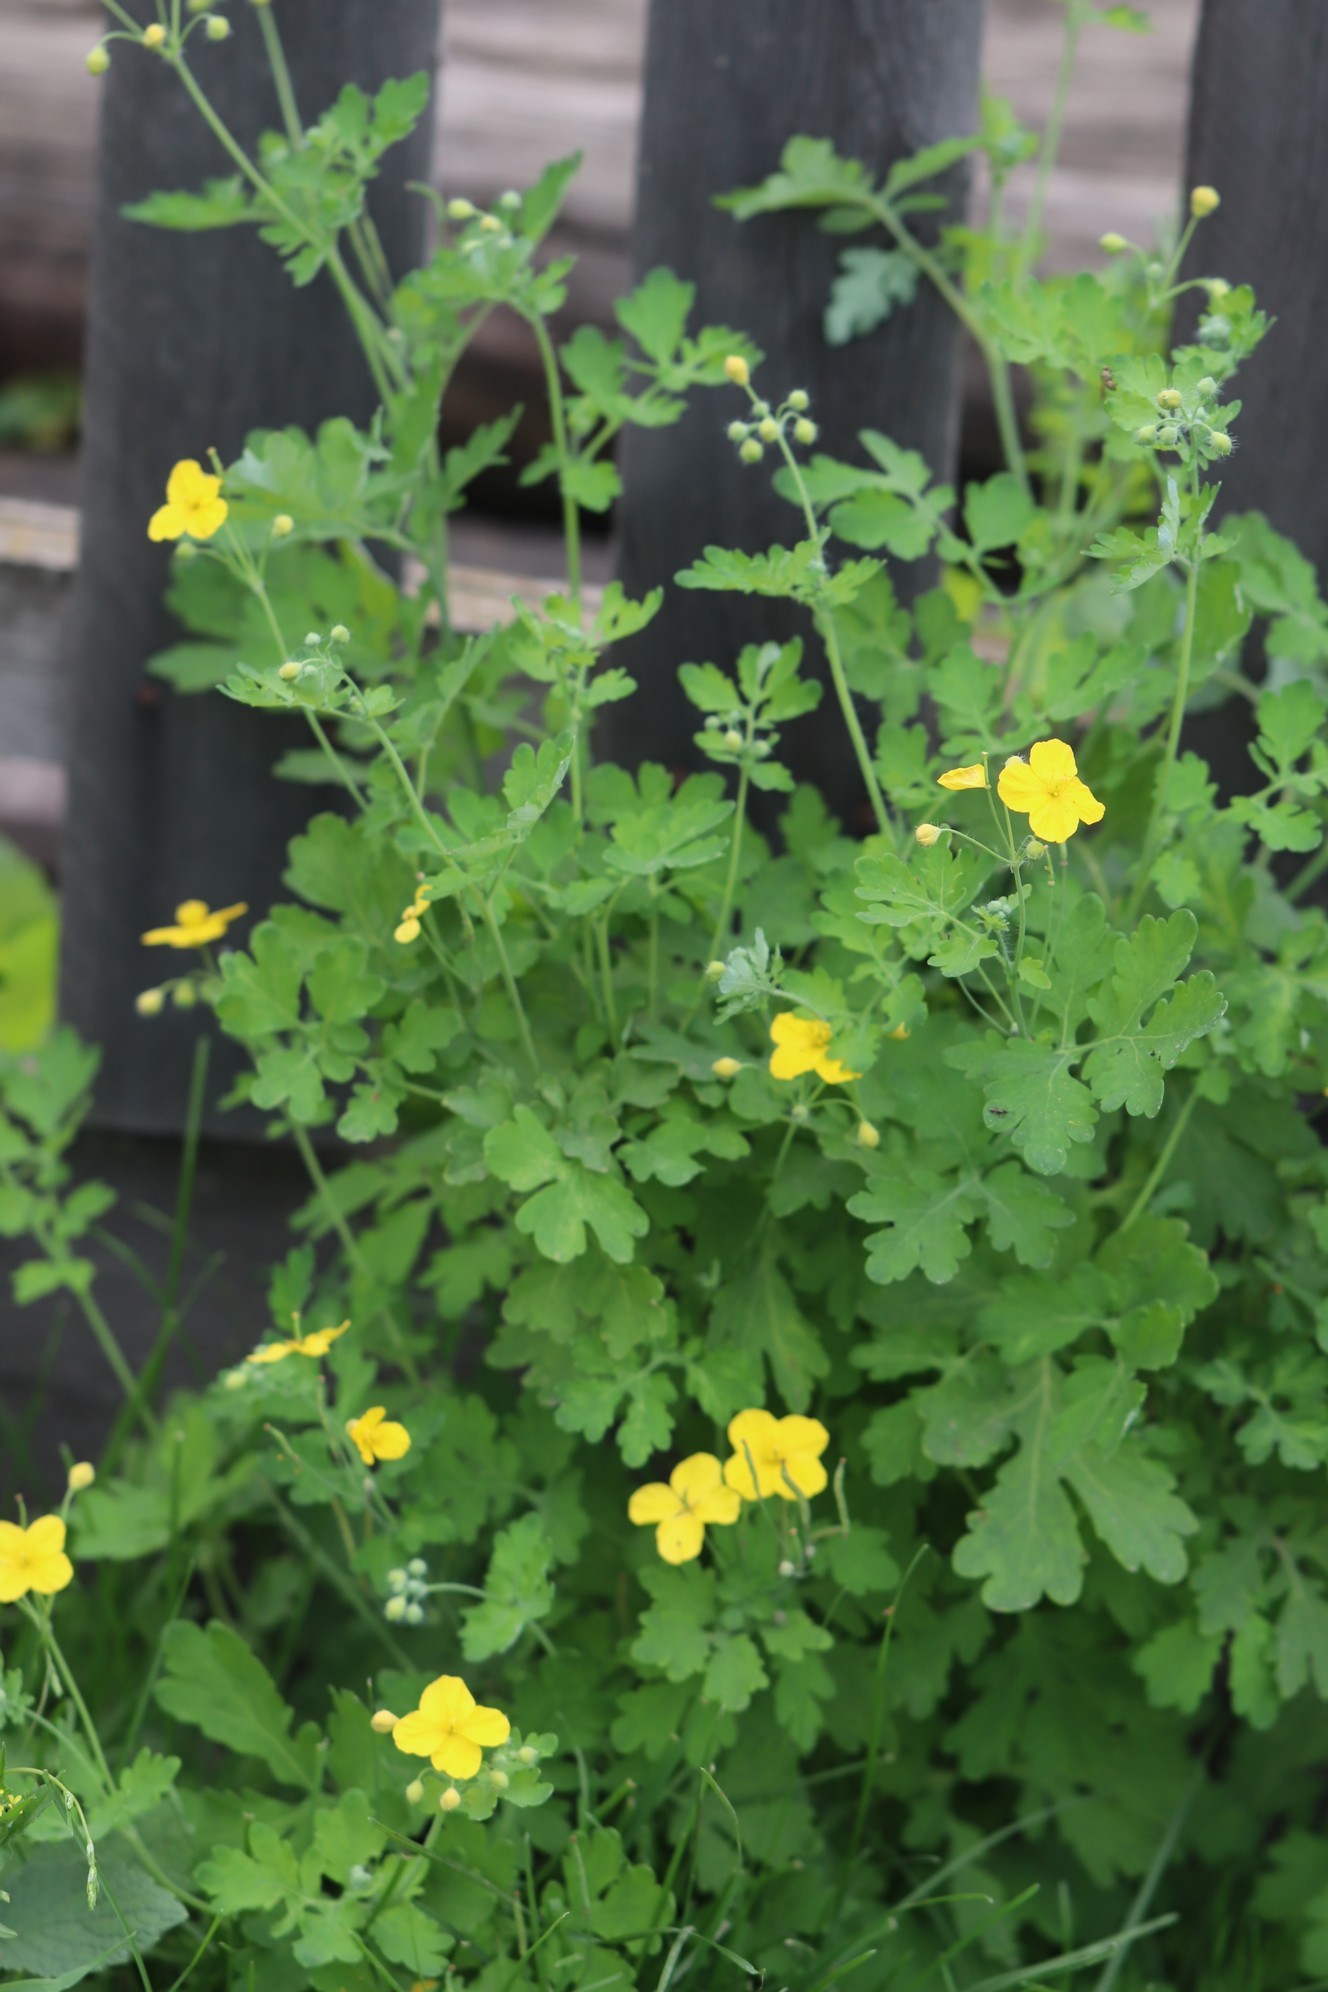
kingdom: Plantae
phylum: Tracheophyta
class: Magnoliopsida
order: Ranunculales
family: Papaveraceae
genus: Chelidonium
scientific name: Chelidonium majus
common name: Greater celandine
